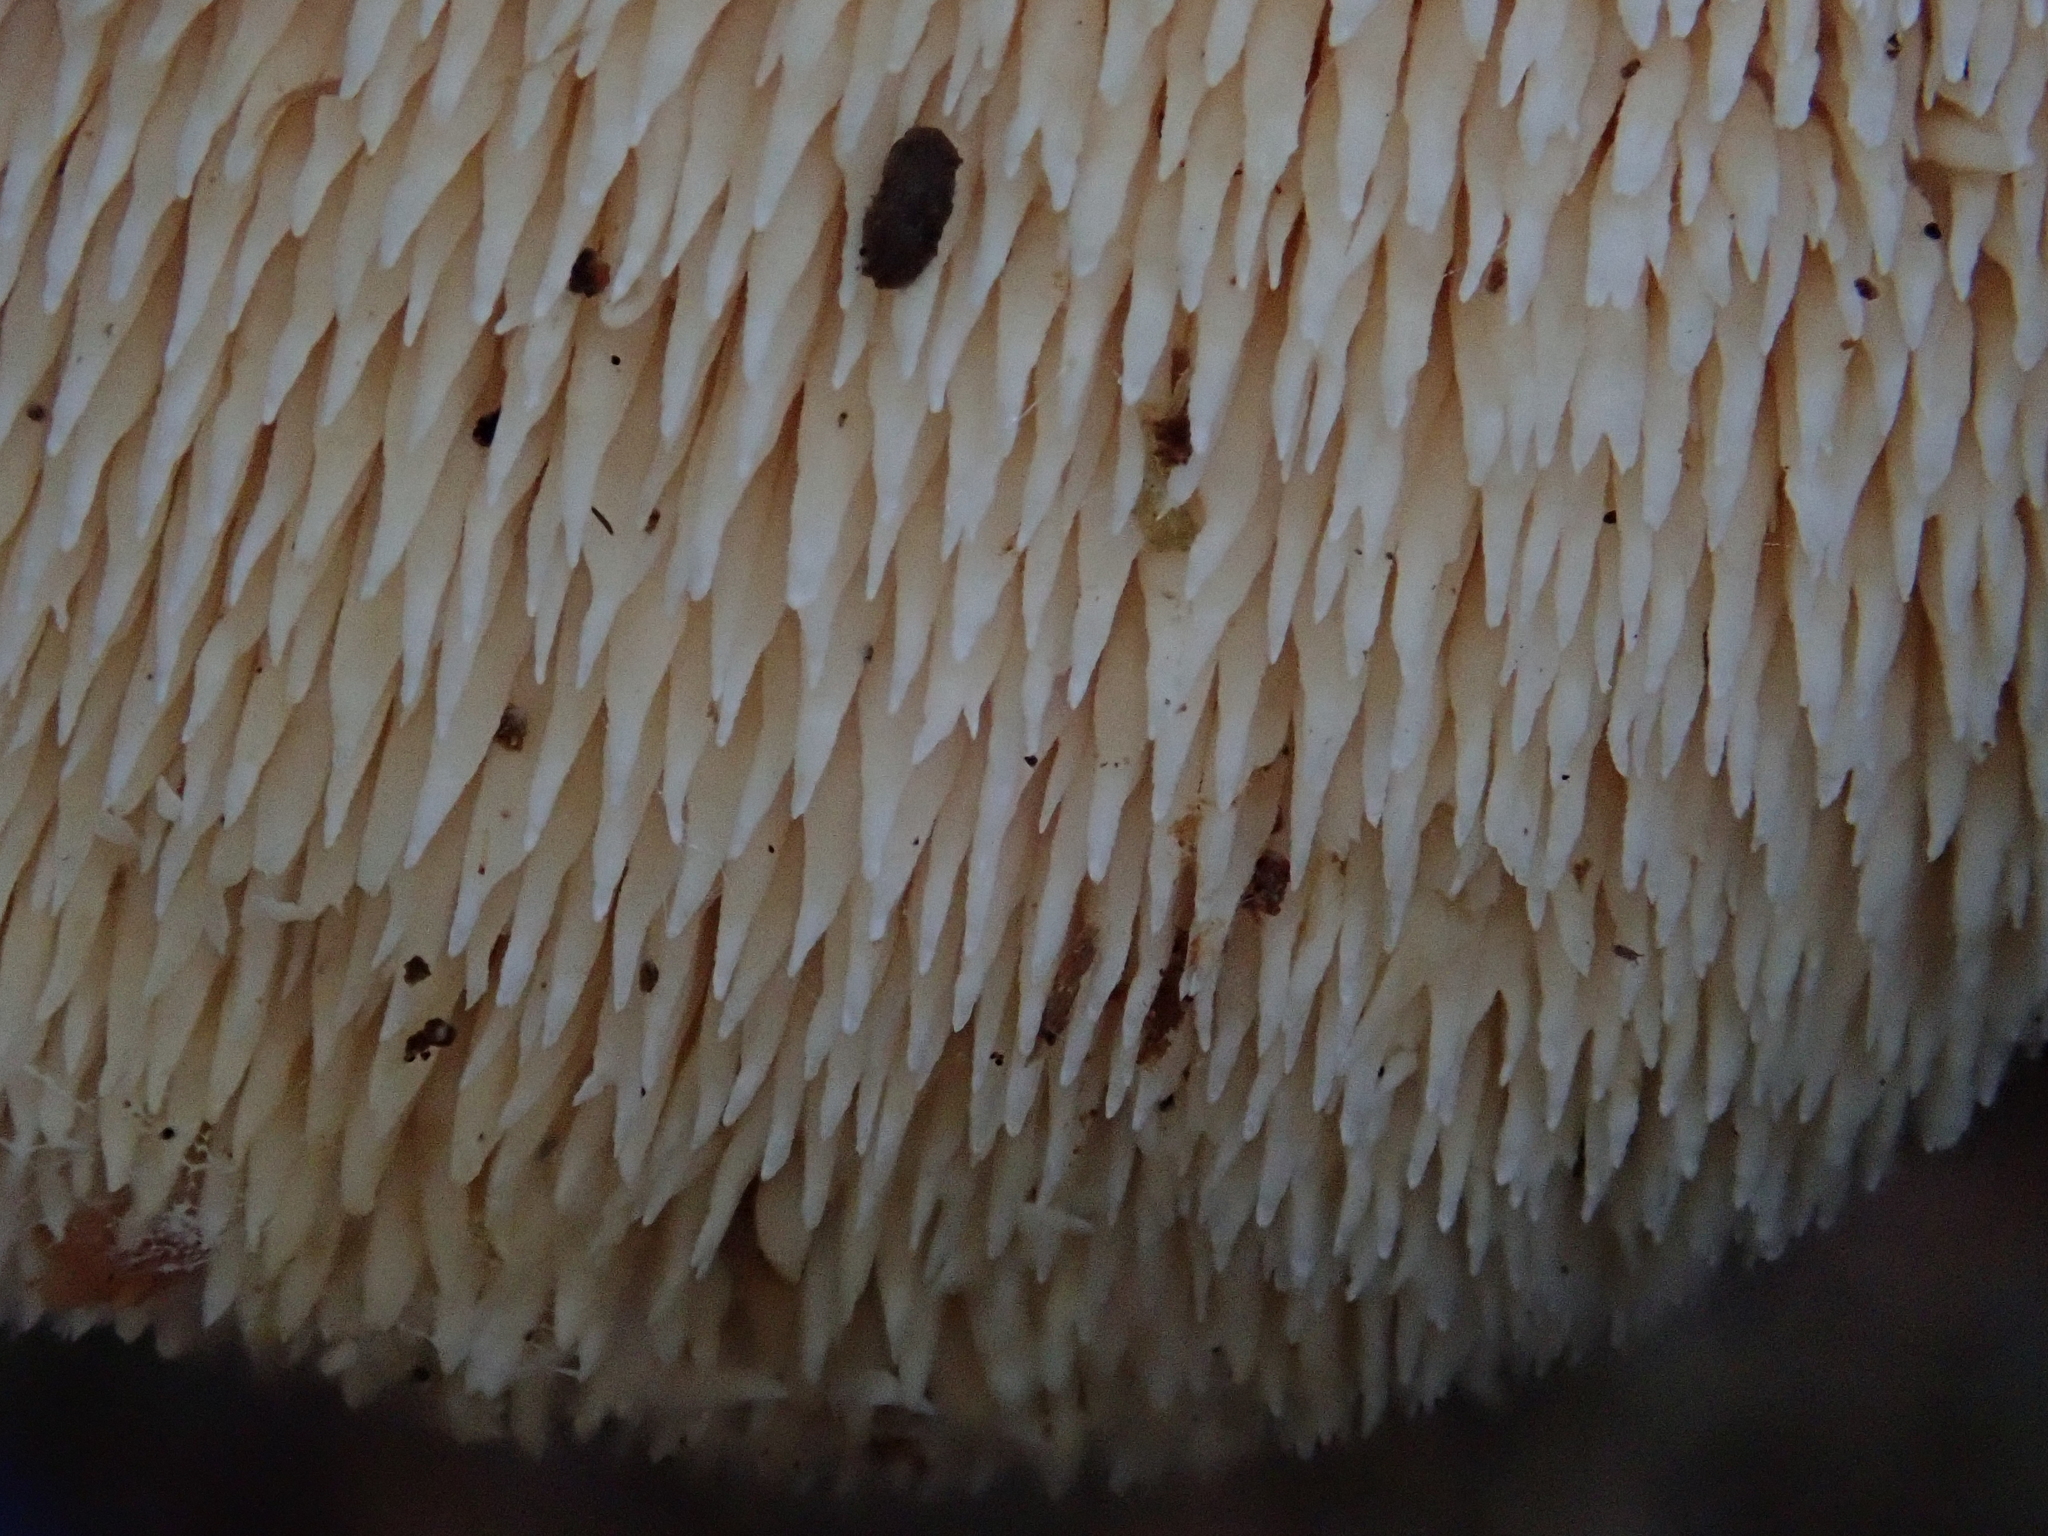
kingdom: Fungi
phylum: Basidiomycota
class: Agaricomycetes
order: Cantharellales
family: Hydnaceae
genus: Hydnum
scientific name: Hydnum repandum
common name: Wood hedgehog
